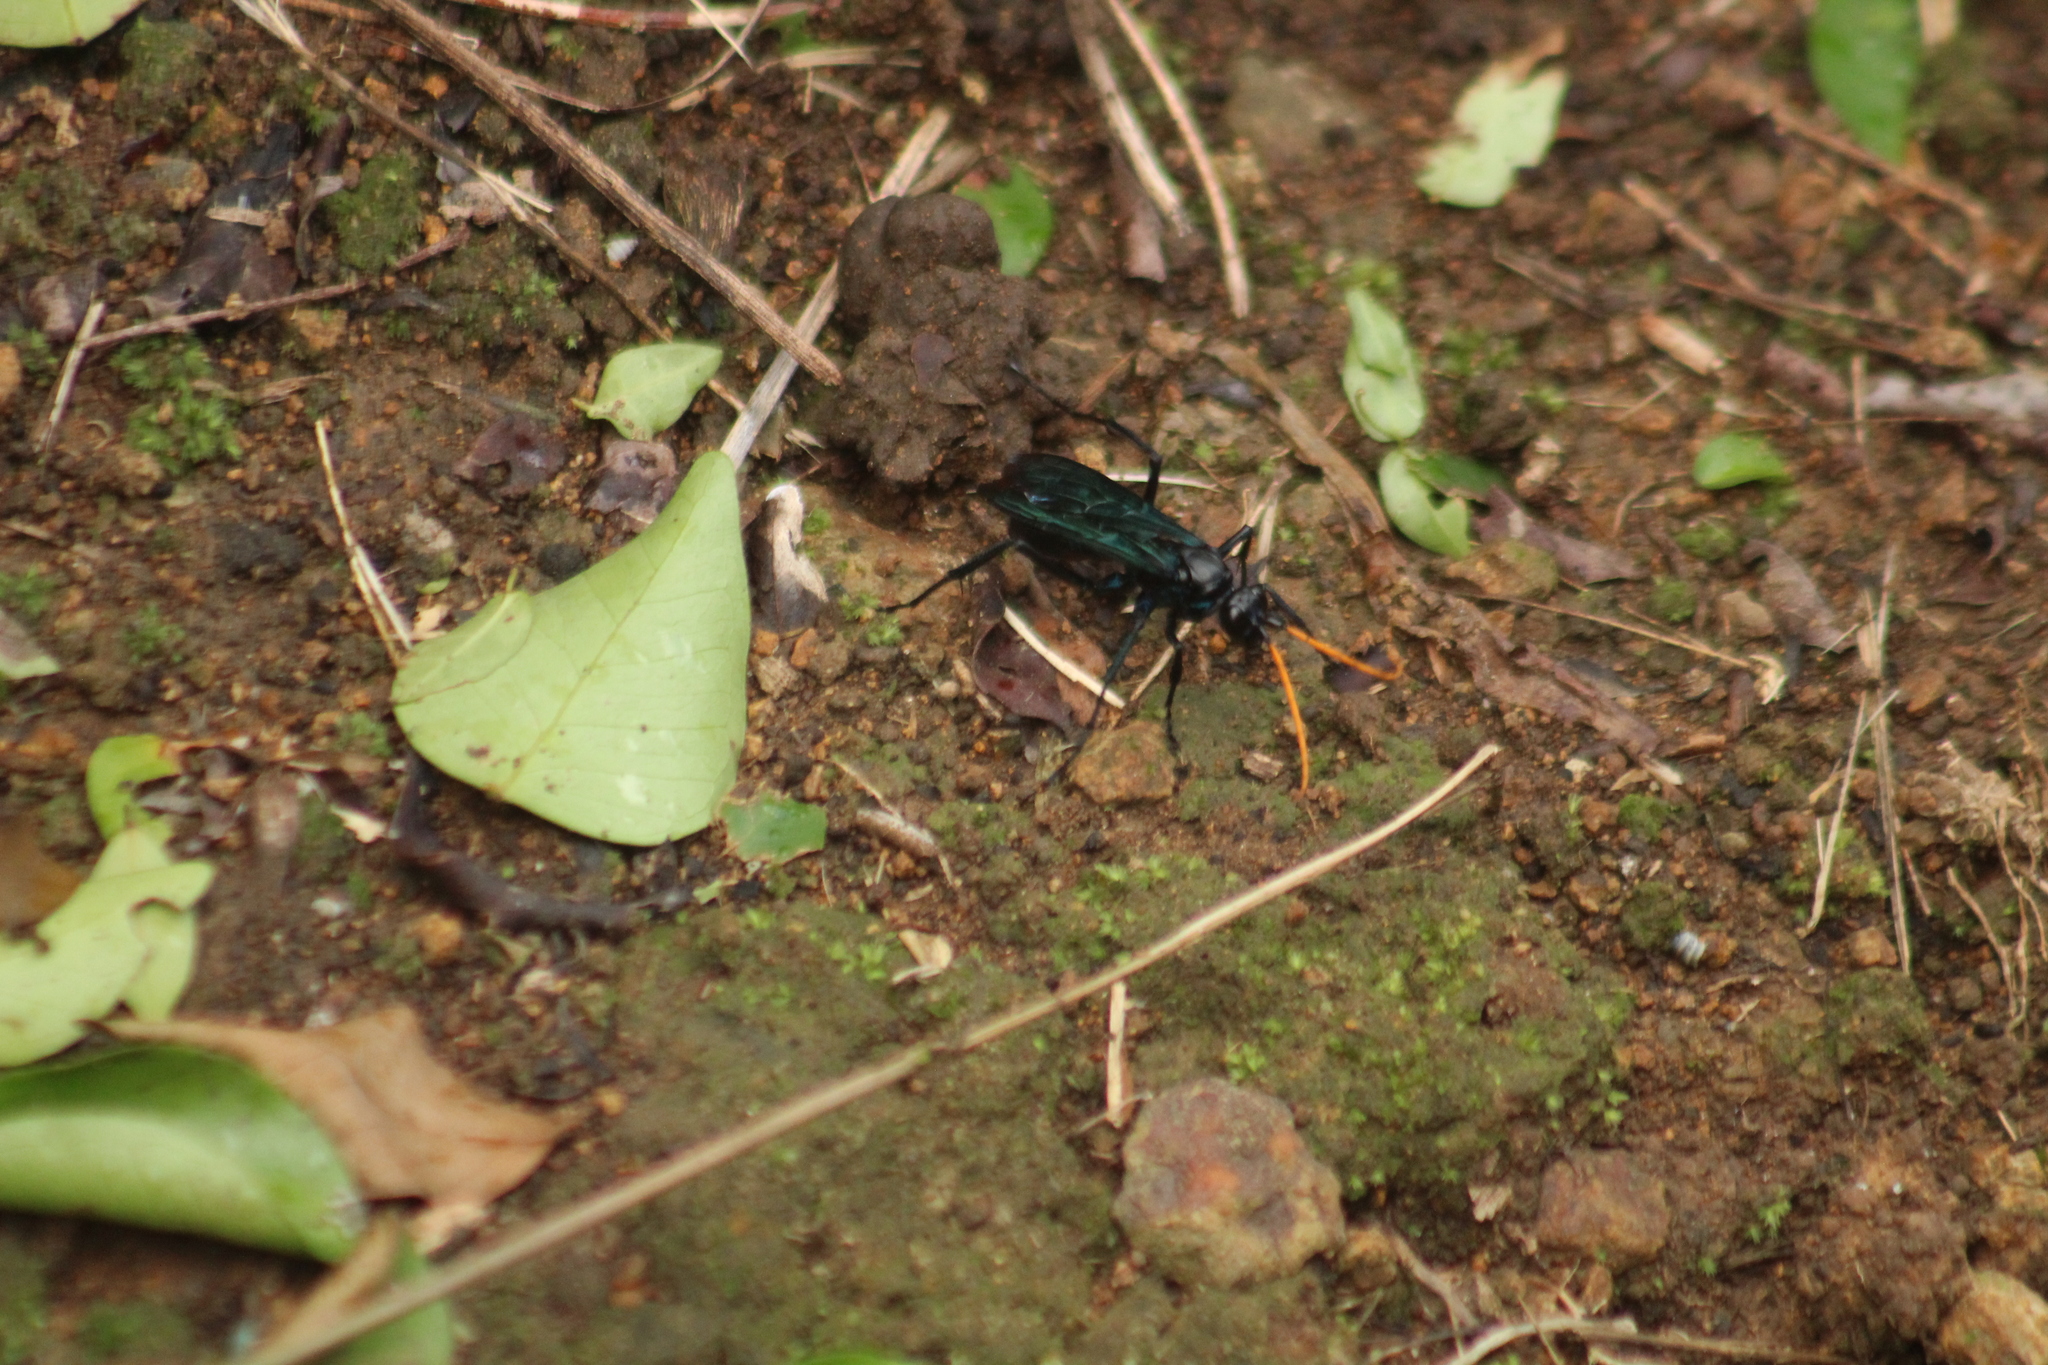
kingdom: Animalia
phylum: Arthropoda
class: Insecta
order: Hymenoptera
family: Pompilidae
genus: Pepsis
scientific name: Pepsis ruficornis
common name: Orange-horned tarantula hawk
